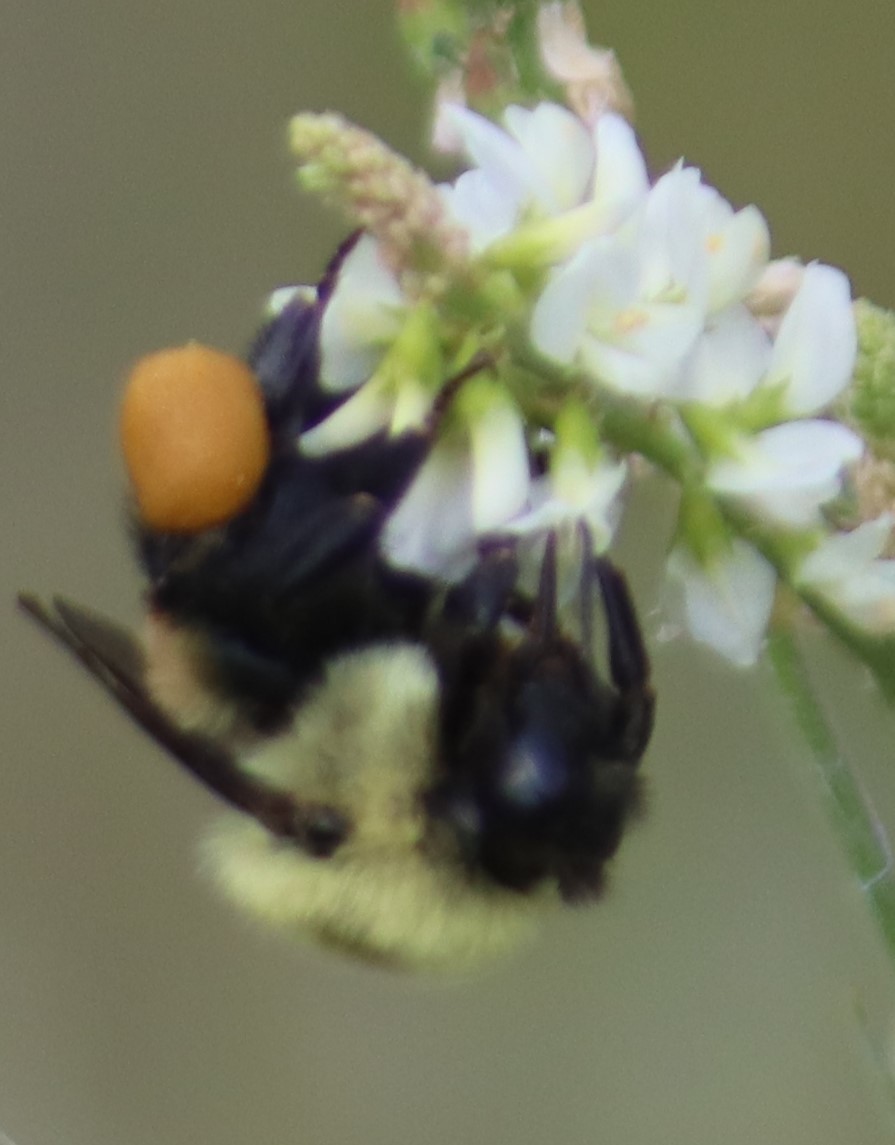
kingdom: Animalia
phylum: Arthropoda
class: Insecta
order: Hymenoptera
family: Apidae
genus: Bombus
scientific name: Bombus griseocollis
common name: Brown-belted bumble bee
